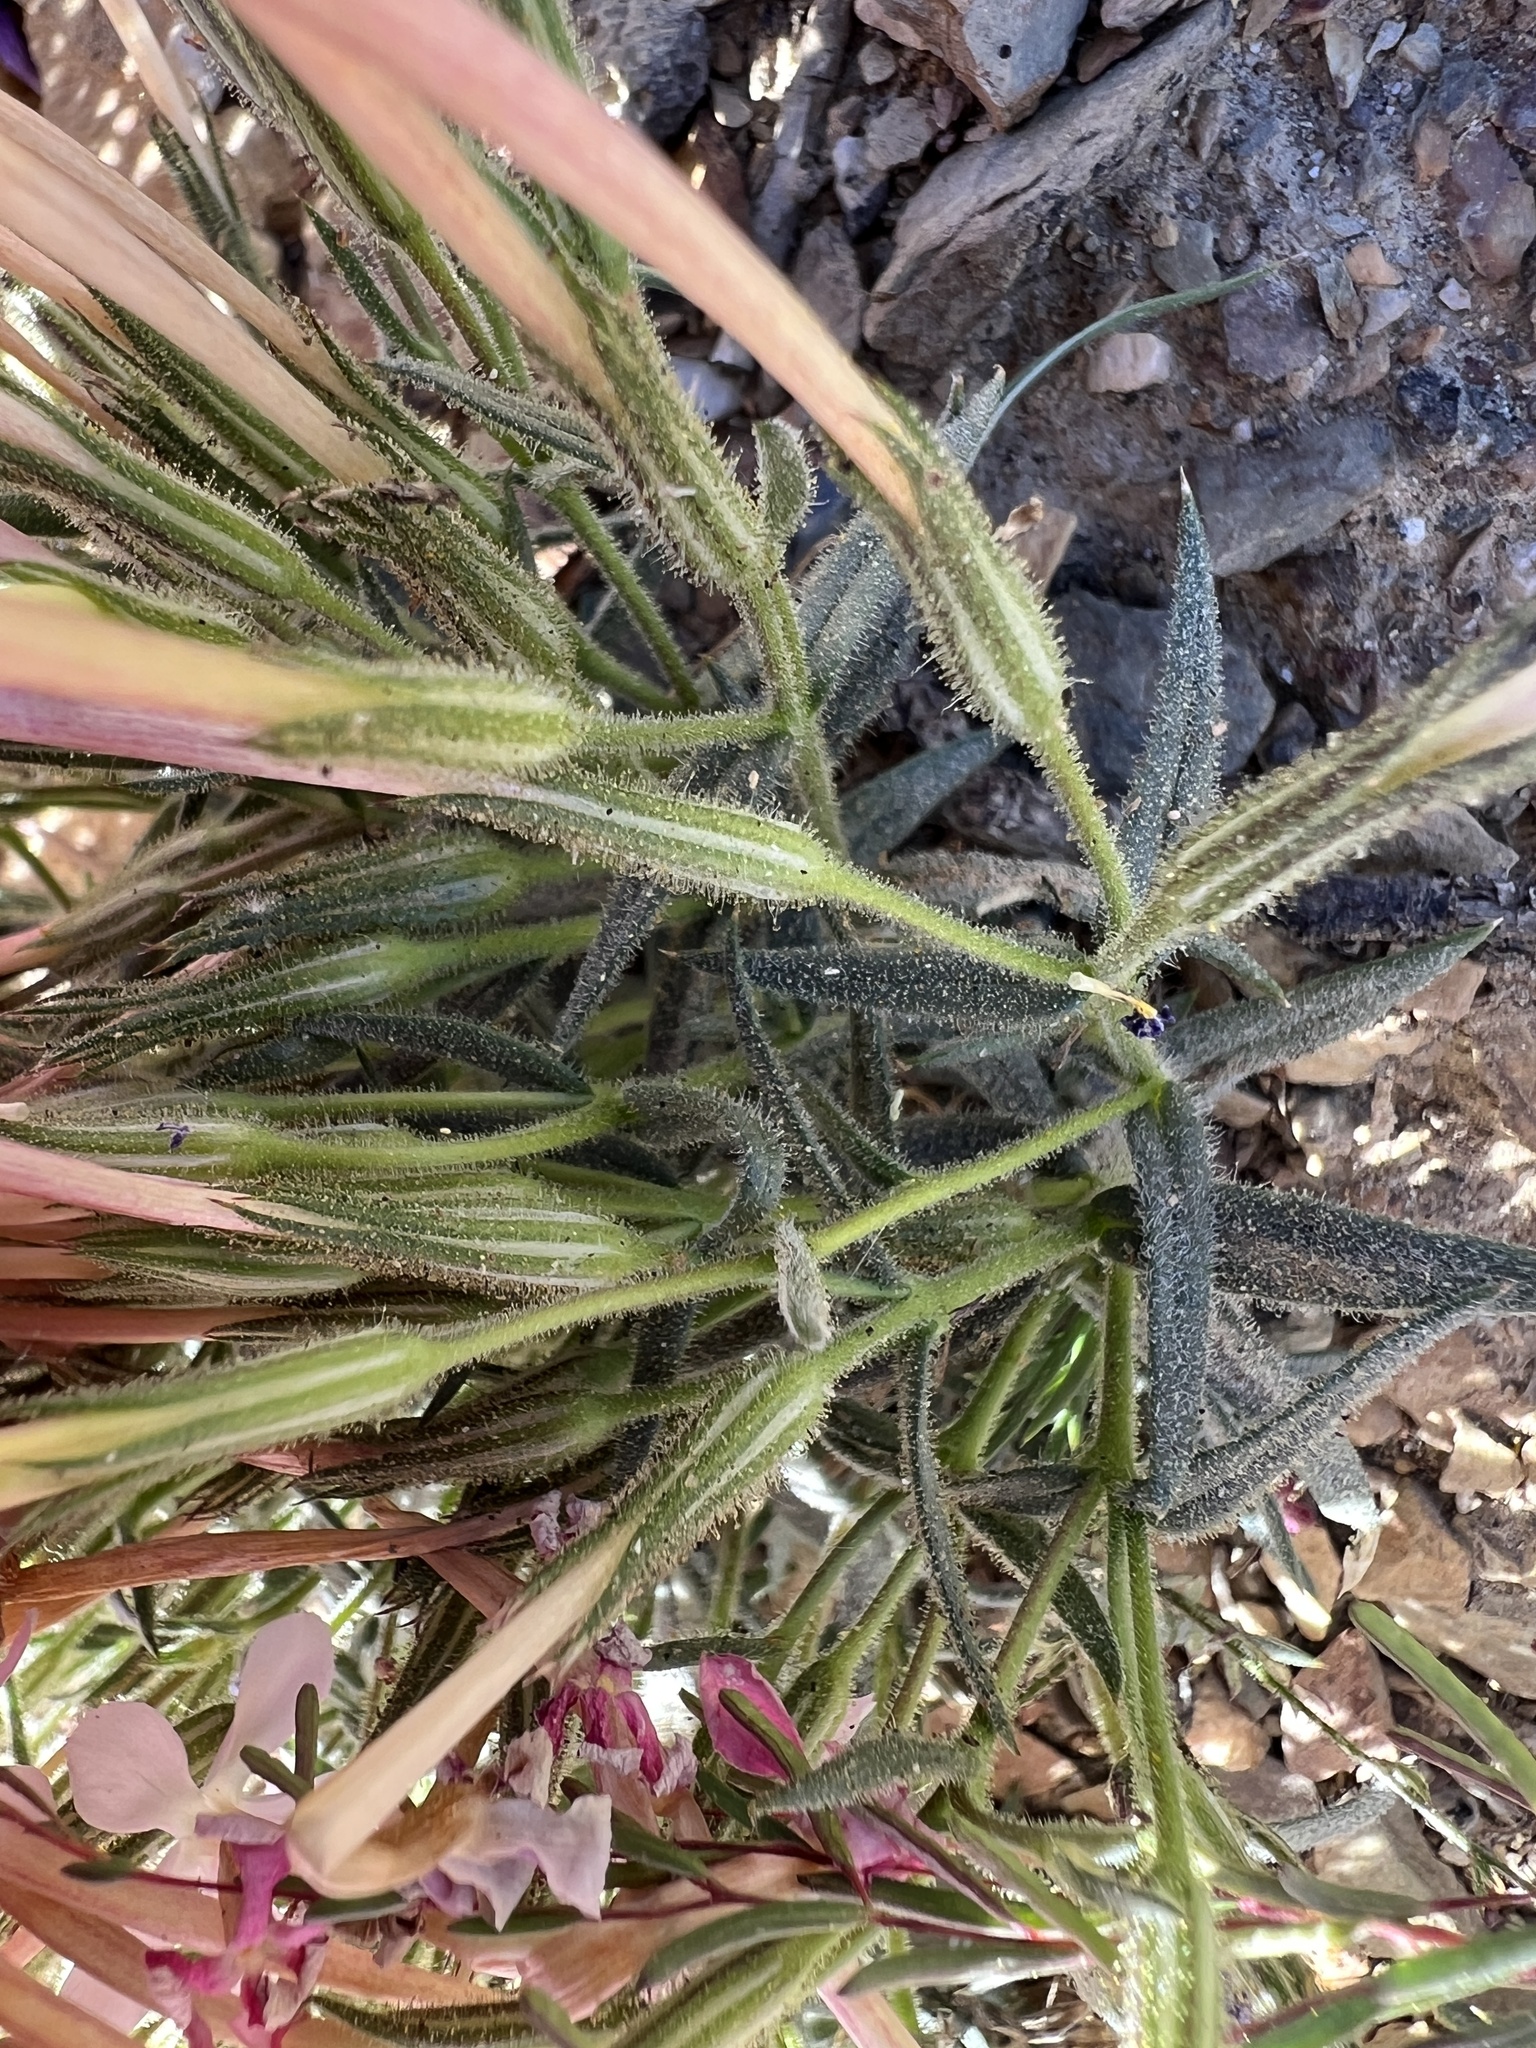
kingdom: Plantae
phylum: Tracheophyta
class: Magnoliopsida
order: Ericales
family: Polemoniaceae
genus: Phlox
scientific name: Phlox longifolia
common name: Longleaf phlox
